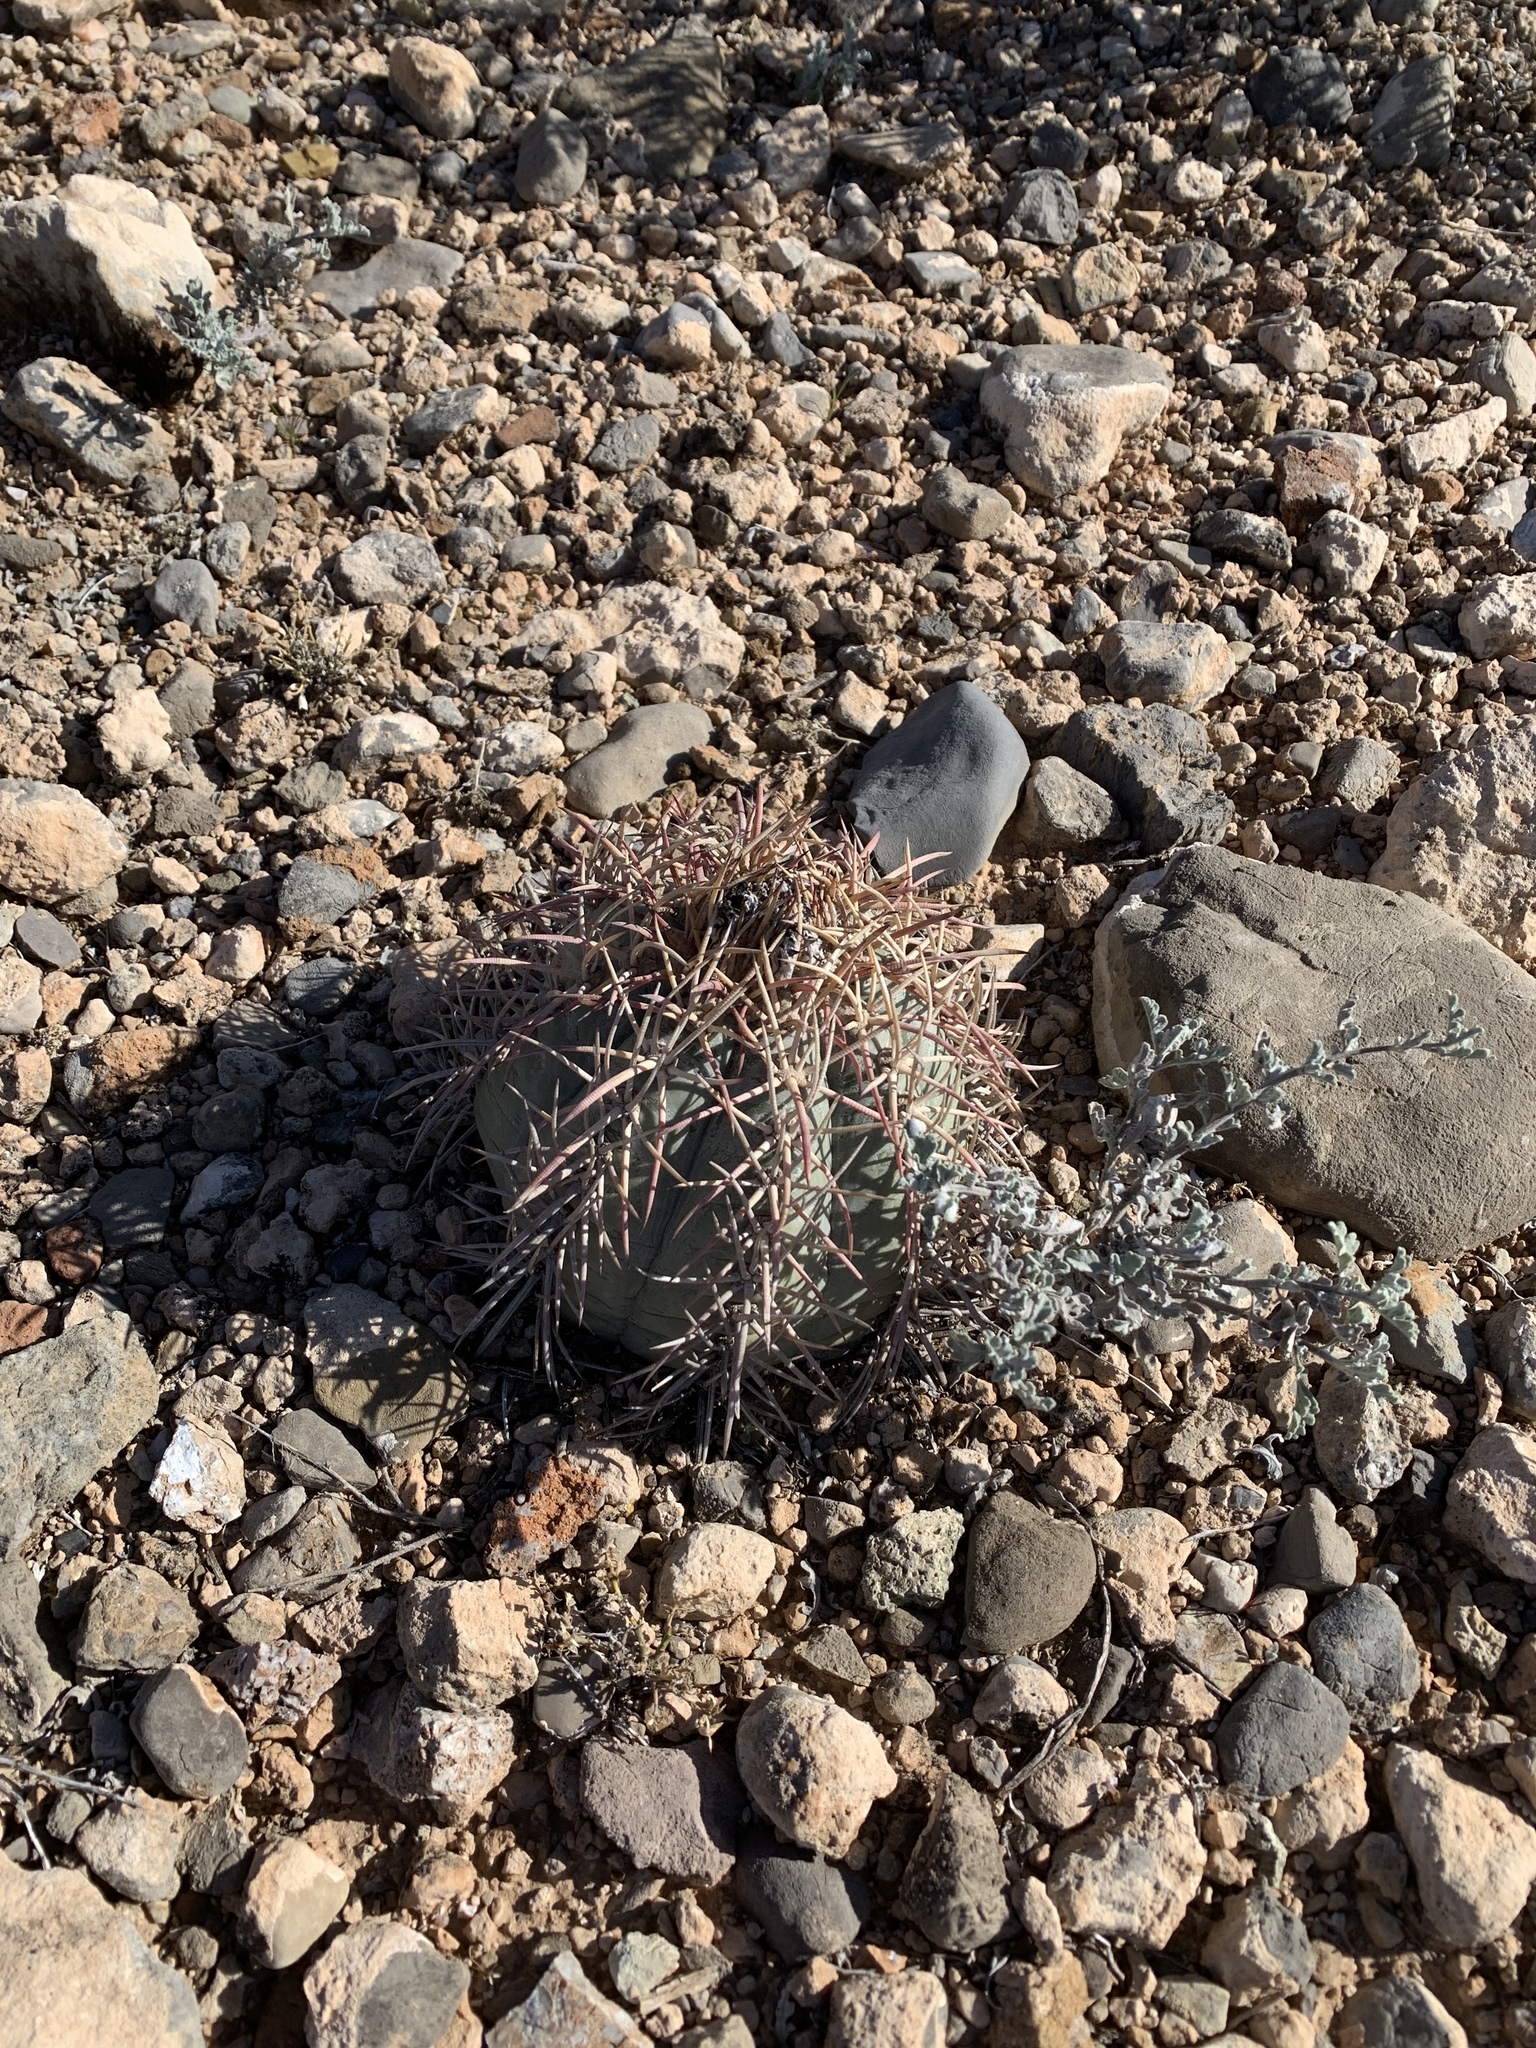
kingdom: Plantae
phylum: Tracheophyta
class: Magnoliopsida
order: Caryophyllales
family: Cactaceae
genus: Echinocactus
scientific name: Echinocactus horizonthalonius
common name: Devilshead
